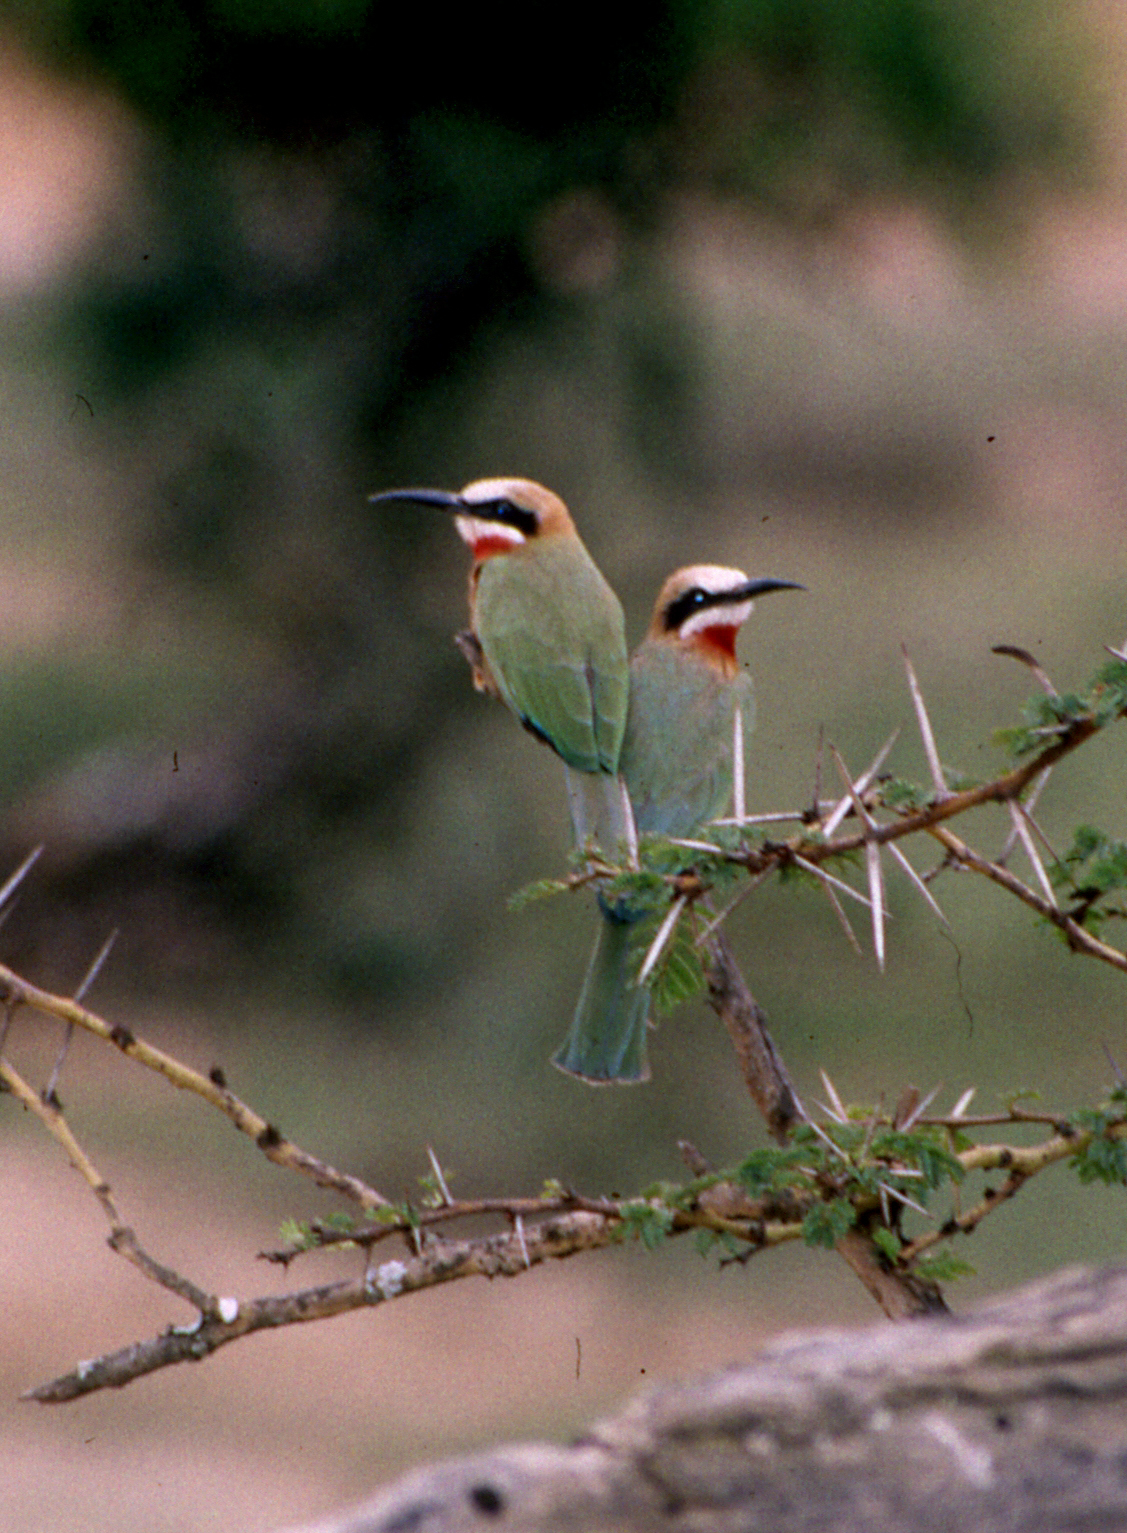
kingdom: Animalia
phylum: Chordata
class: Aves
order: Coraciiformes
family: Meropidae
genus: Merops
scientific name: Merops bullockoides
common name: White-fronted bee-eater
